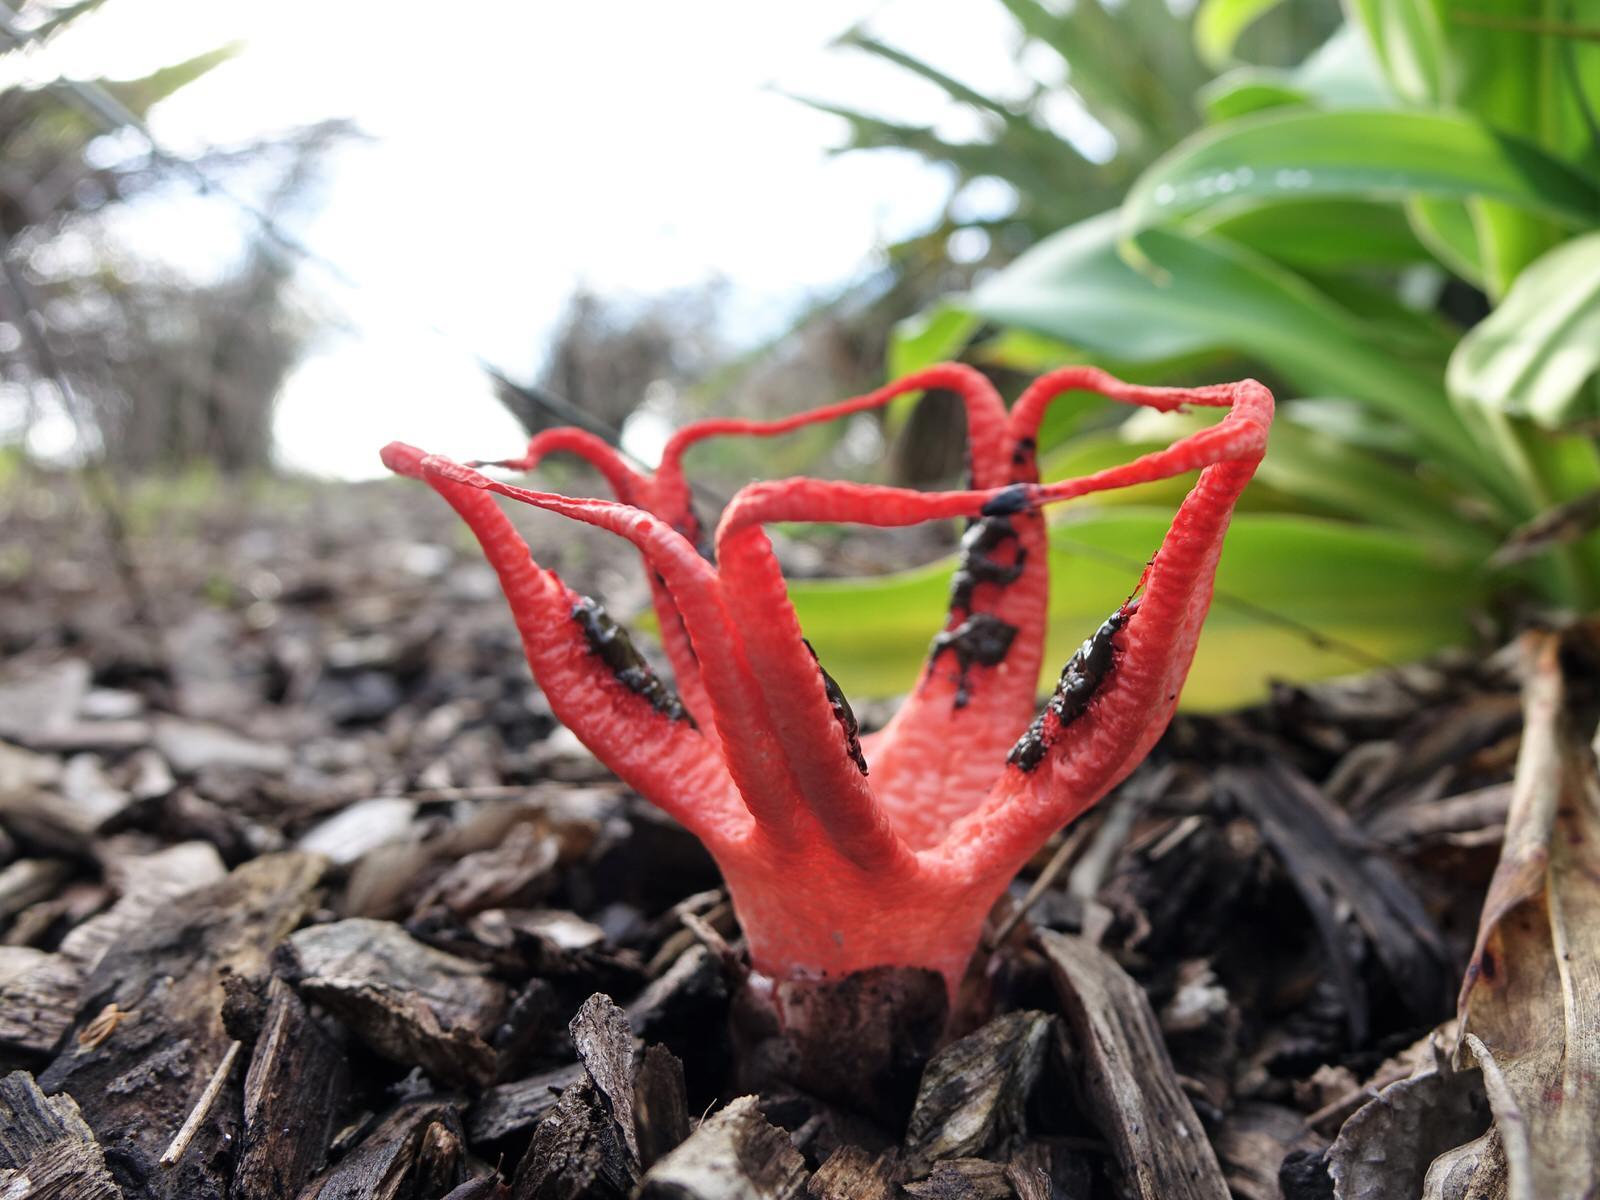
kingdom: Fungi
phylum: Basidiomycota
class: Agaricomycetes
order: Phallales
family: Phallaceae
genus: Clathrus
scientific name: Clathrus archeri
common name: Devil's fingers
